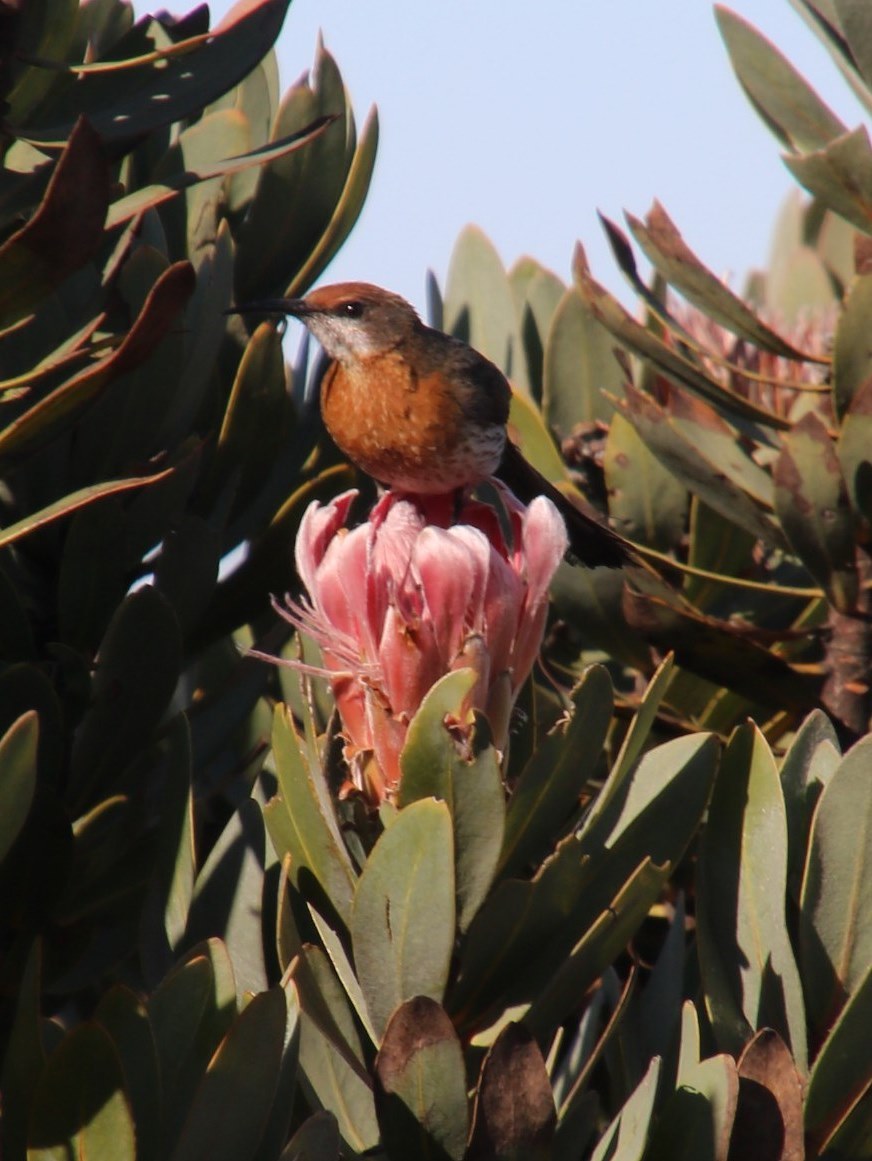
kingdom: Plantae
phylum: Tracheophyta
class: Magnoliopsida
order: Proteales
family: Proteaceae
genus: Protea
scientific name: Protea roupelliae
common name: Silver sugarbush
